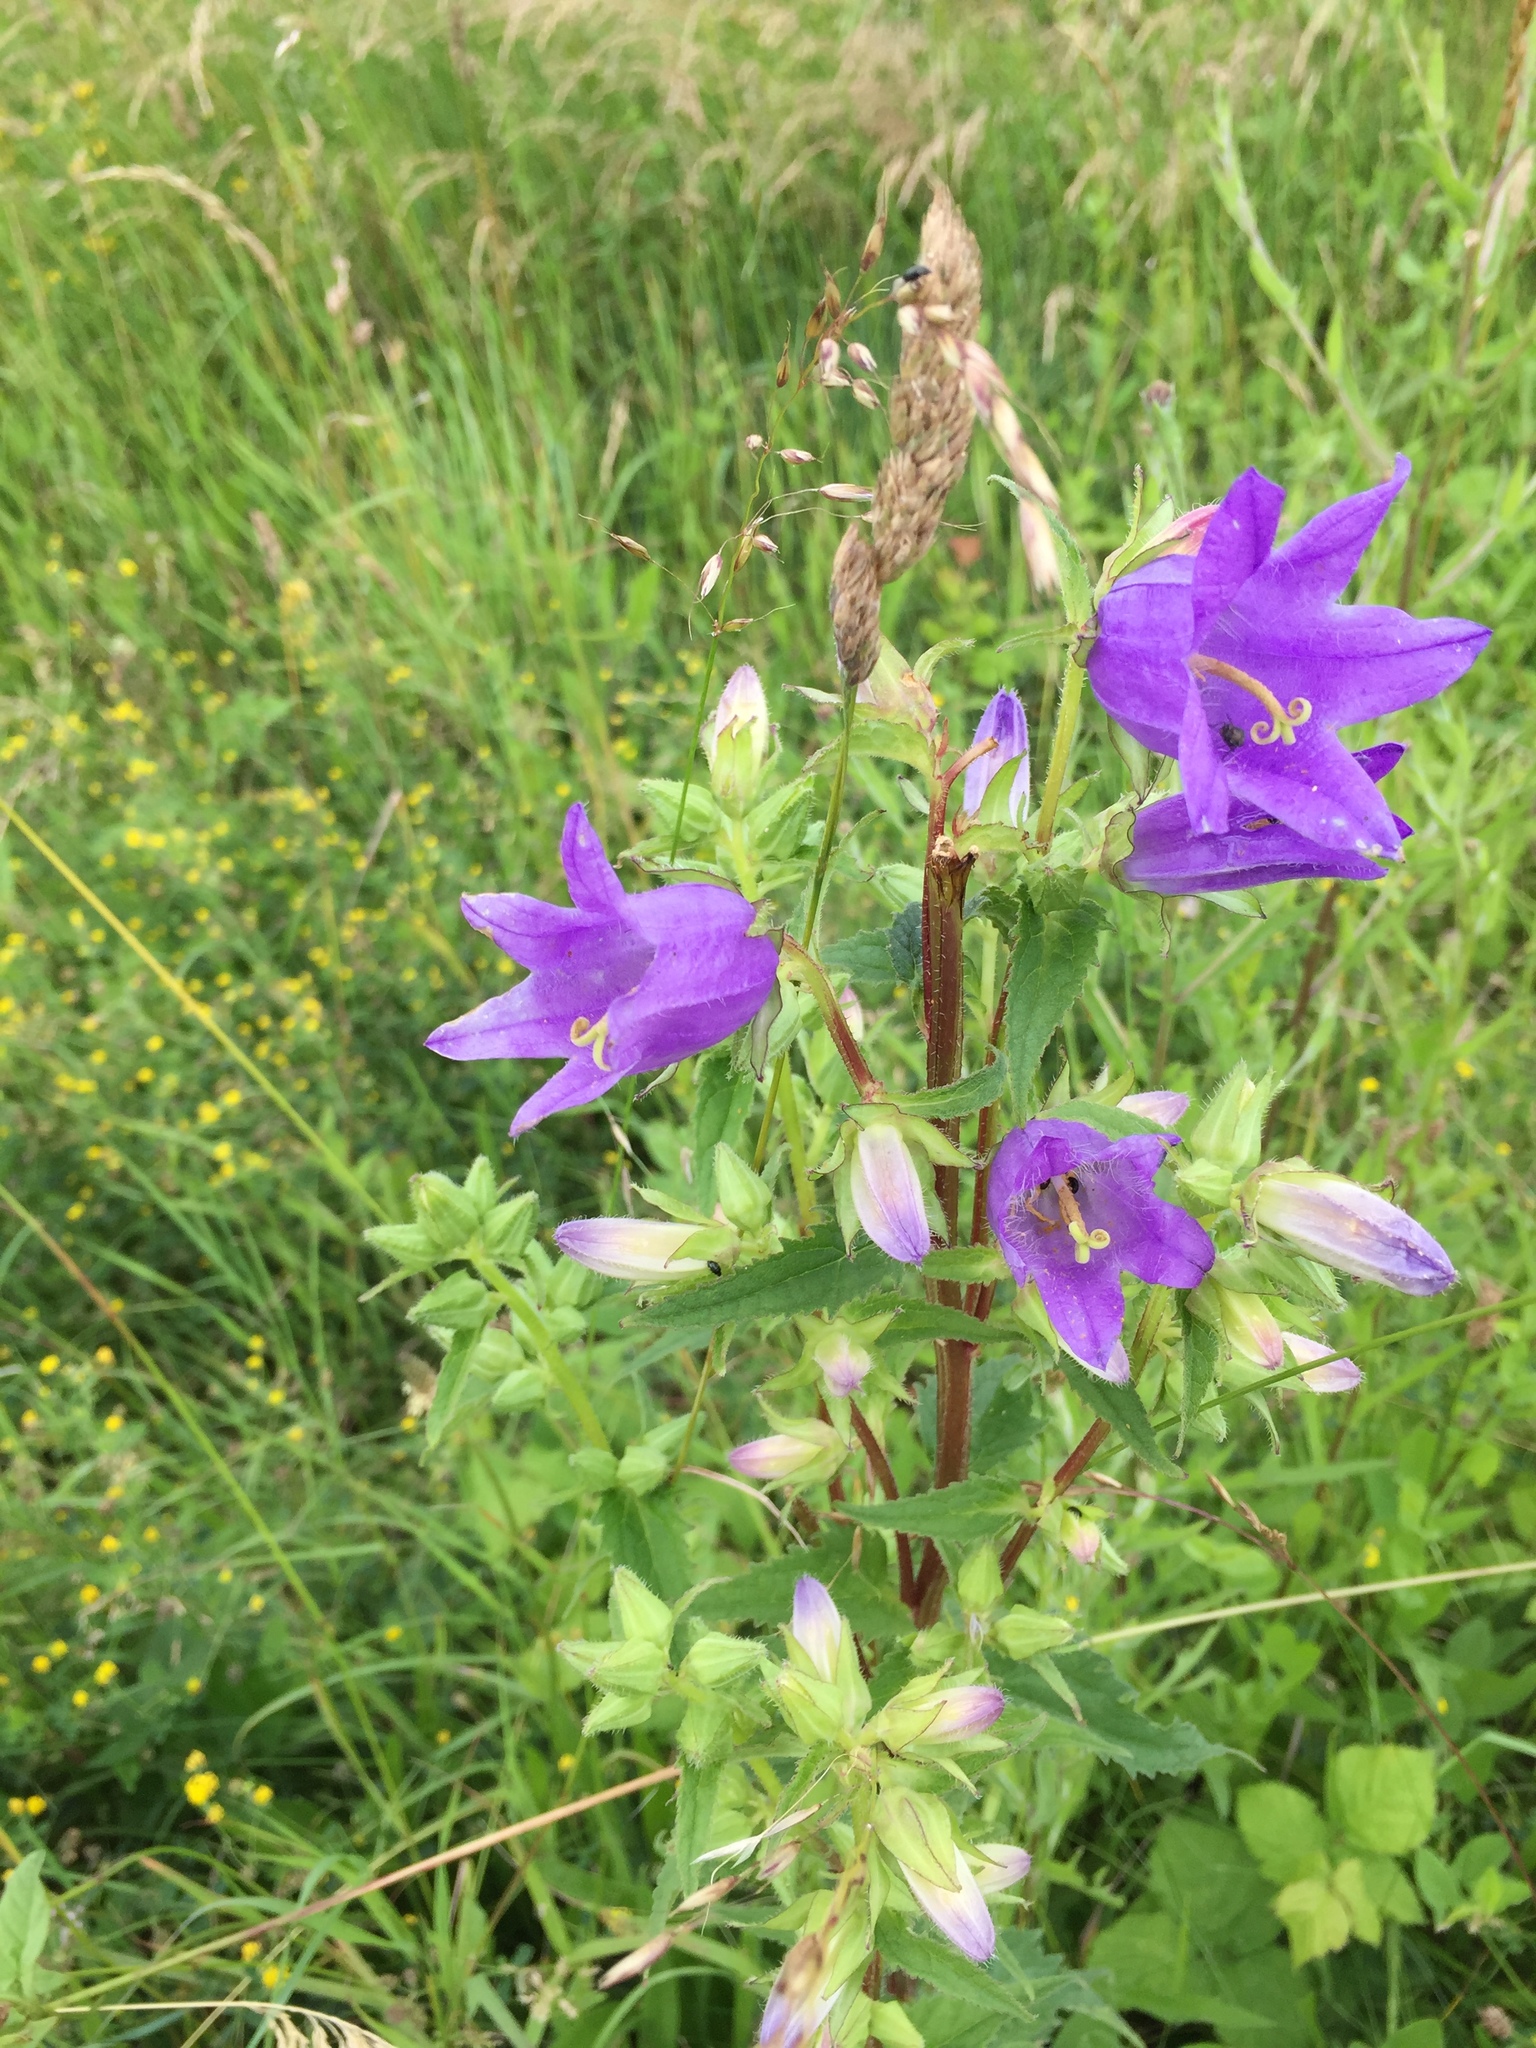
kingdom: Plantae
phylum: Tracheophyta
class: Magnoliopsida
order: Asterales
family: Campanulaceae
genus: Campanula
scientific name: Campanula trachelium
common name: Nettle-leaved bellflower
